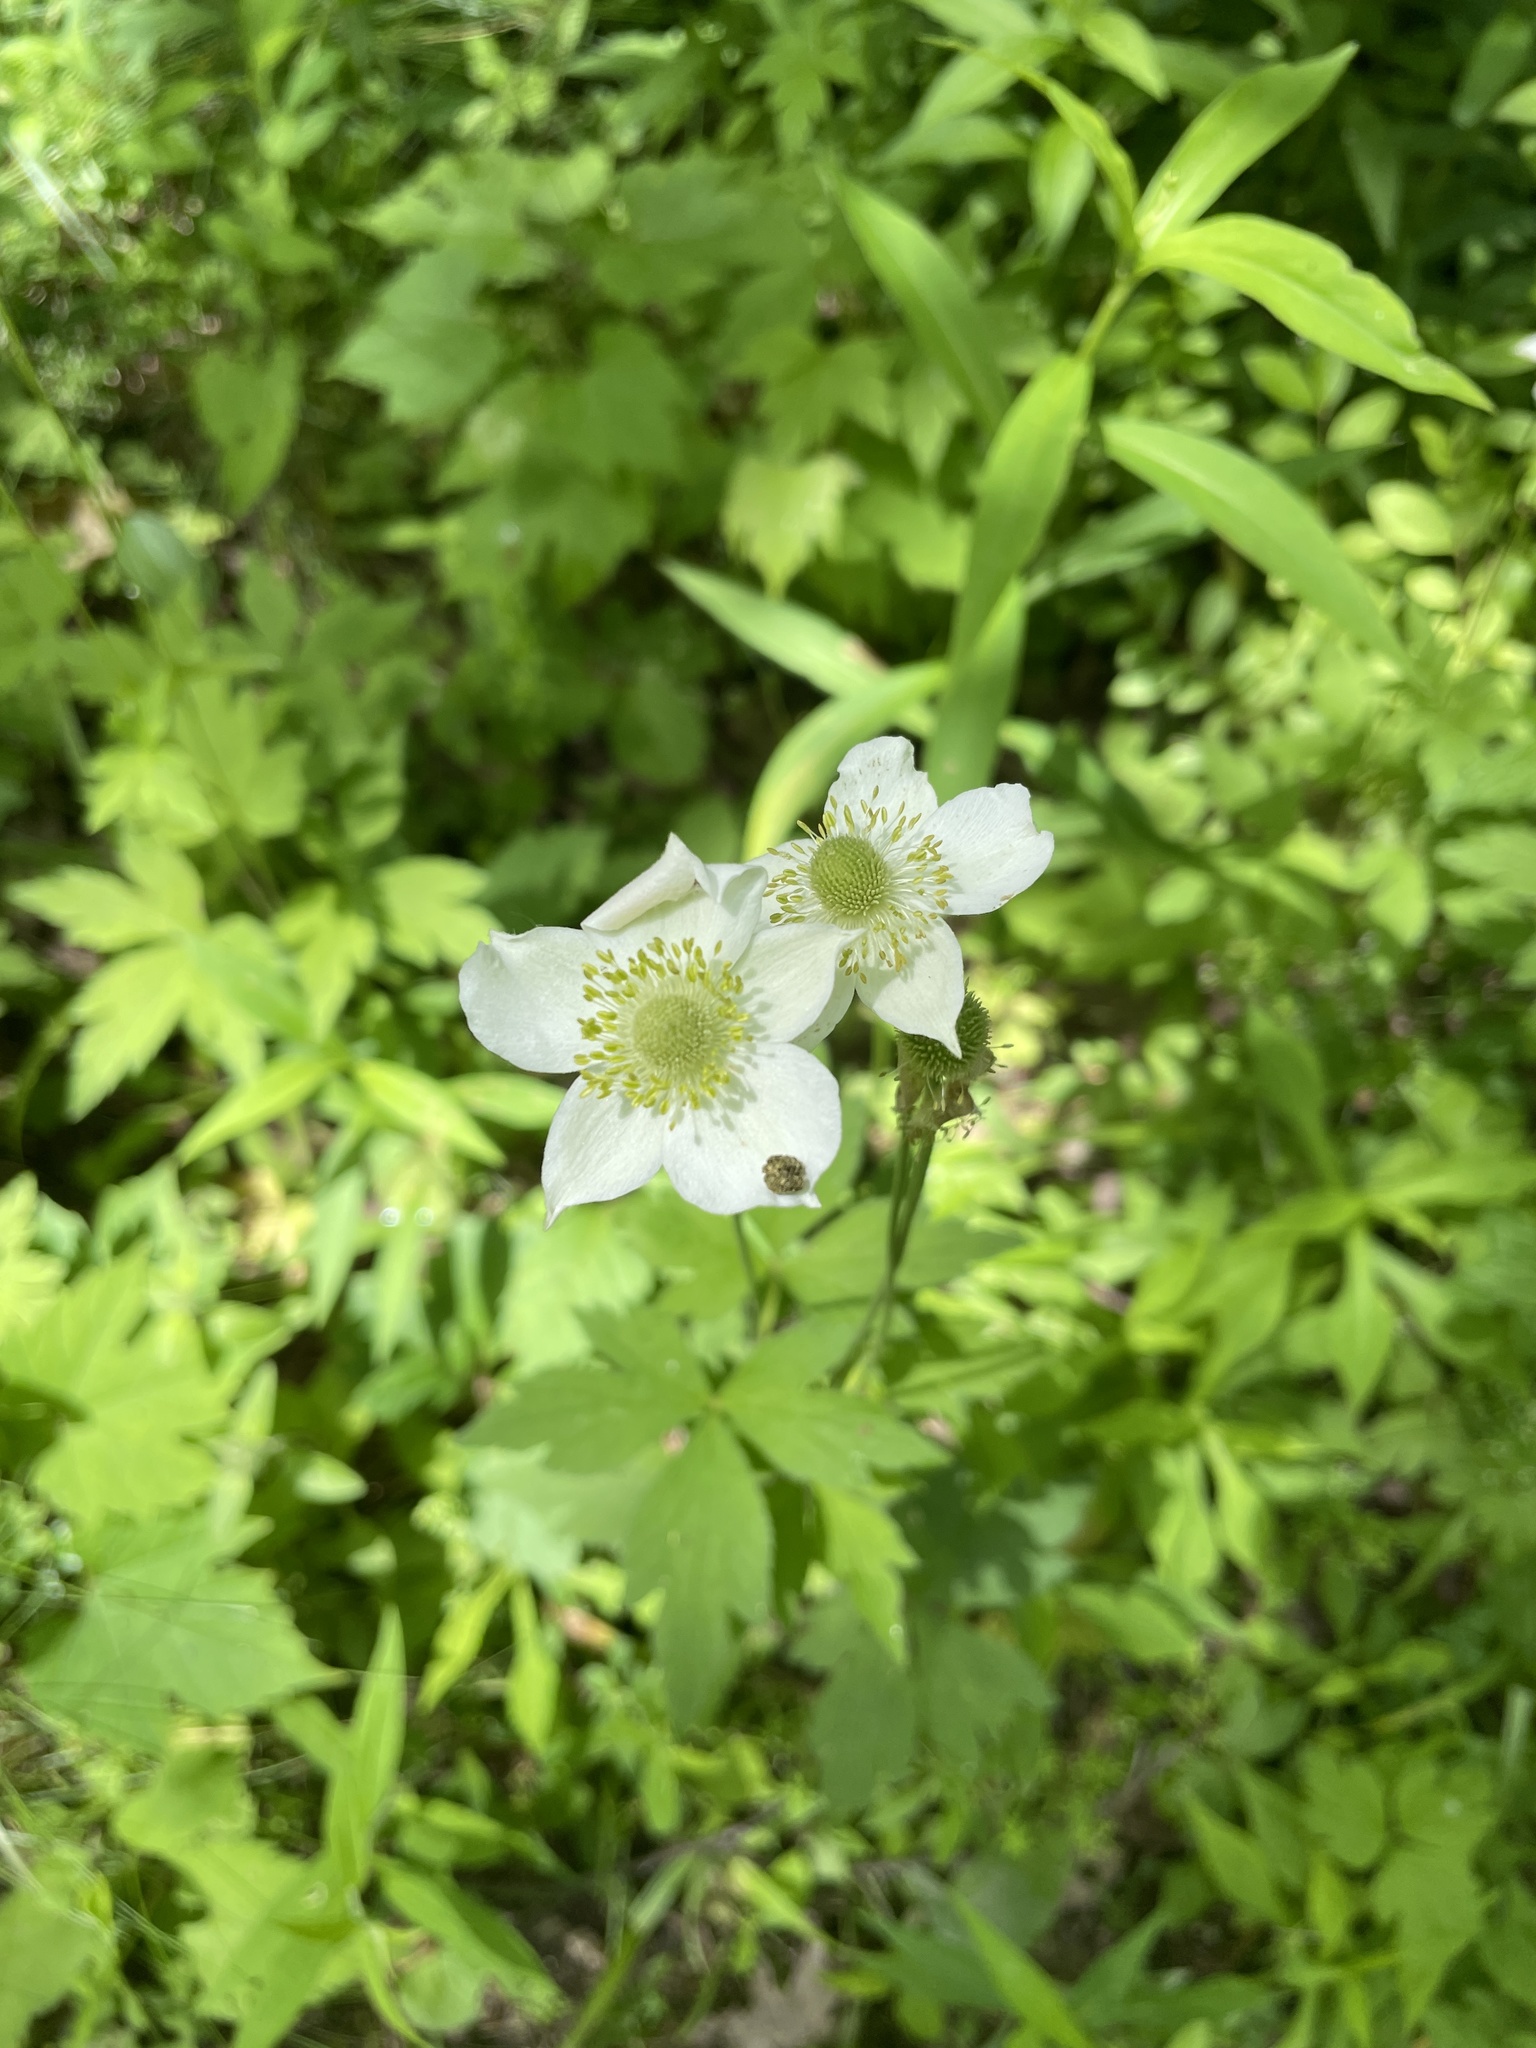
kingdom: Plantae
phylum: Tracheophyta
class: Magnoliopsida
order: Ranunculales
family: Ranunculaceae
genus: Anemone
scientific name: Anemone virginiana
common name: Tall anemone
